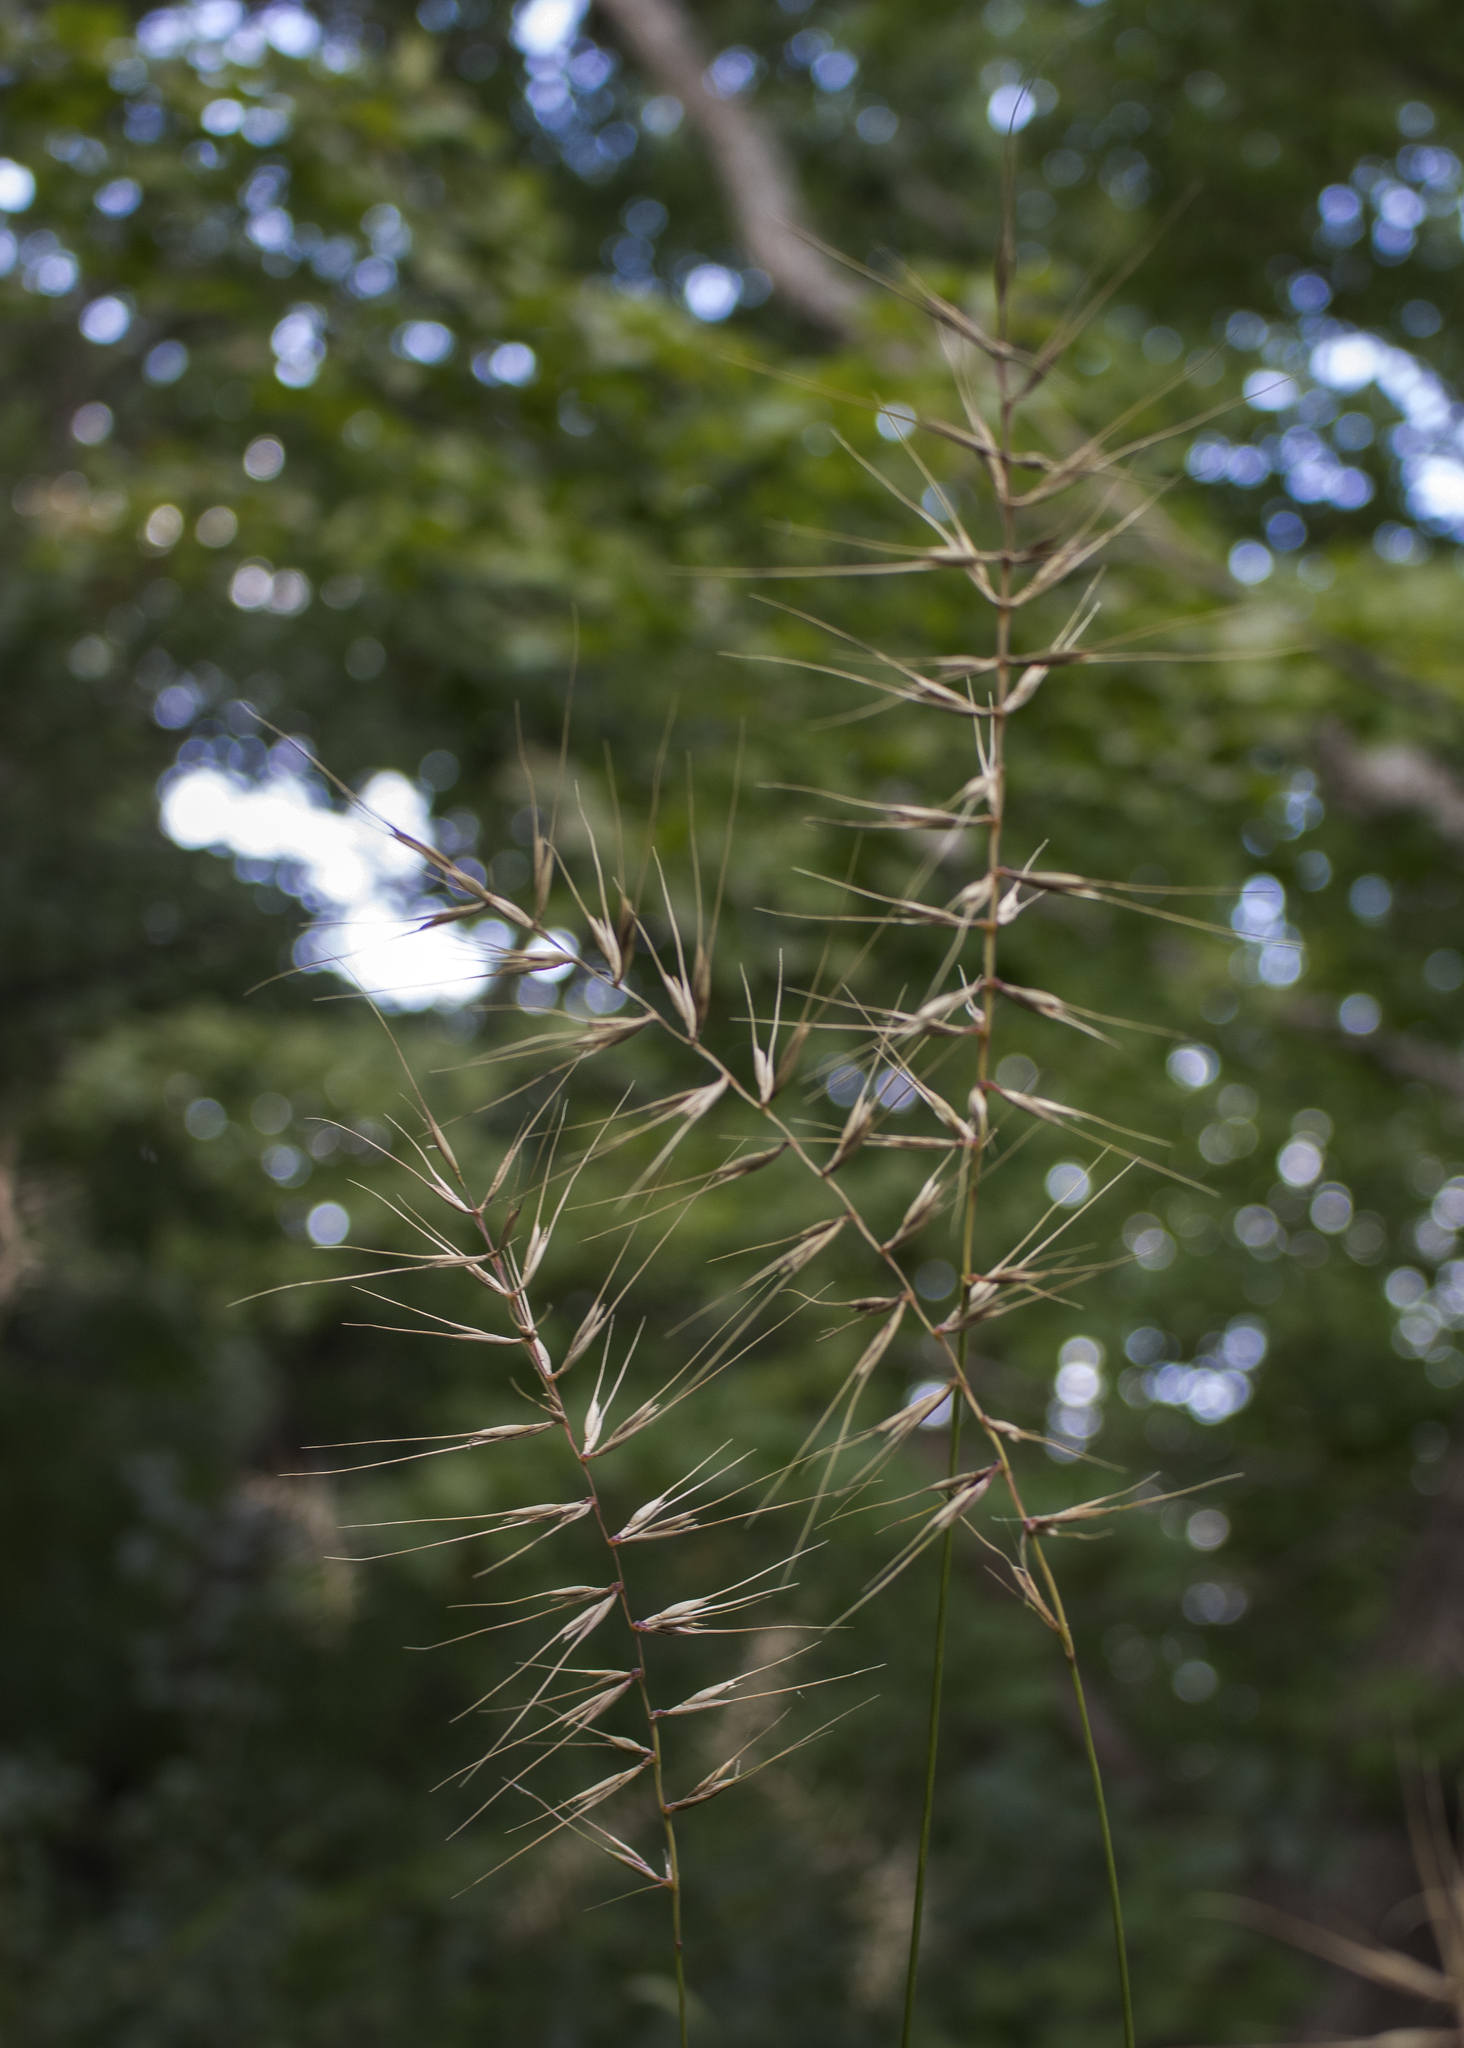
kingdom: Plantae
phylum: Tracheophyta
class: Liliopsida
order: Poales
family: Poaceae
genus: Elymus
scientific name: Elymus hystrix
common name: Bottlebrush grass
